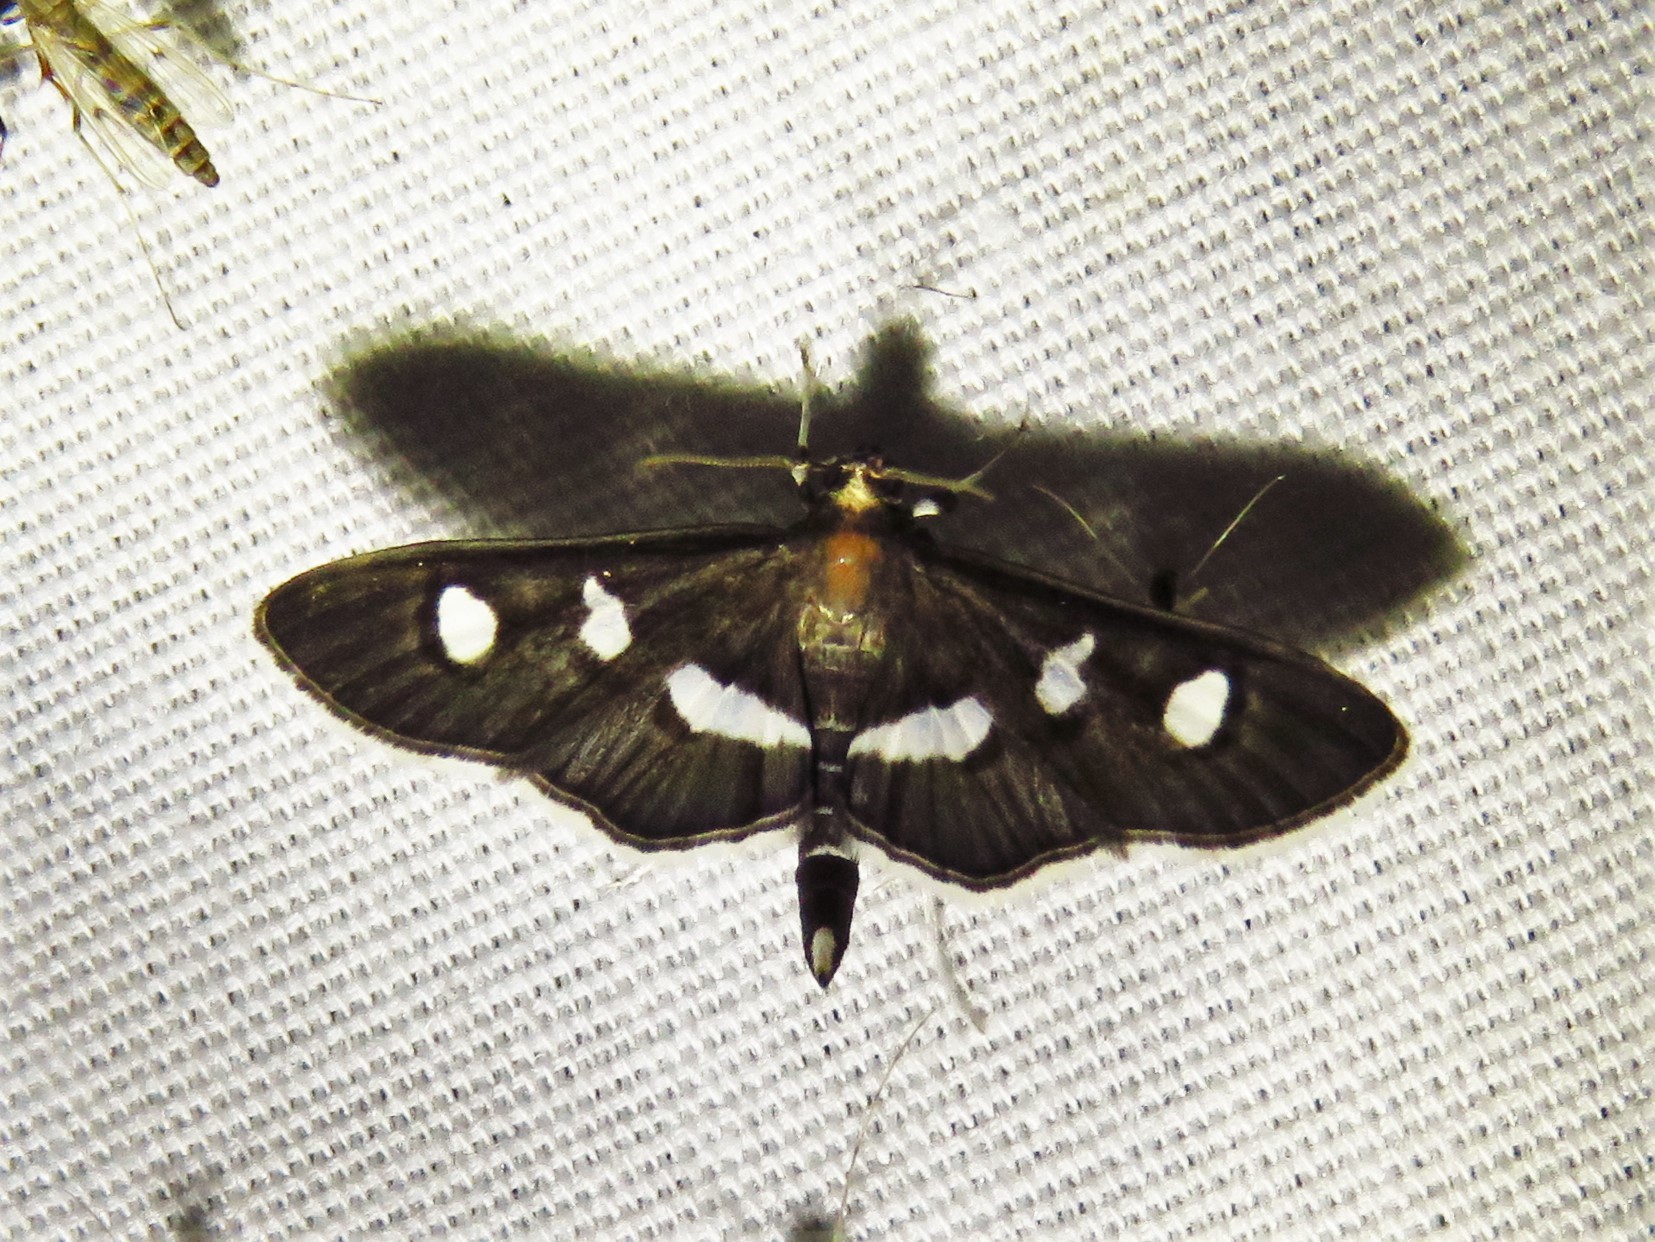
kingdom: Animalia
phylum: Arthropoda
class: Insecta
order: Lepidoptera
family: Crambidae
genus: Desmia
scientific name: Desmia funeralis
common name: Grape leaf folder moth
